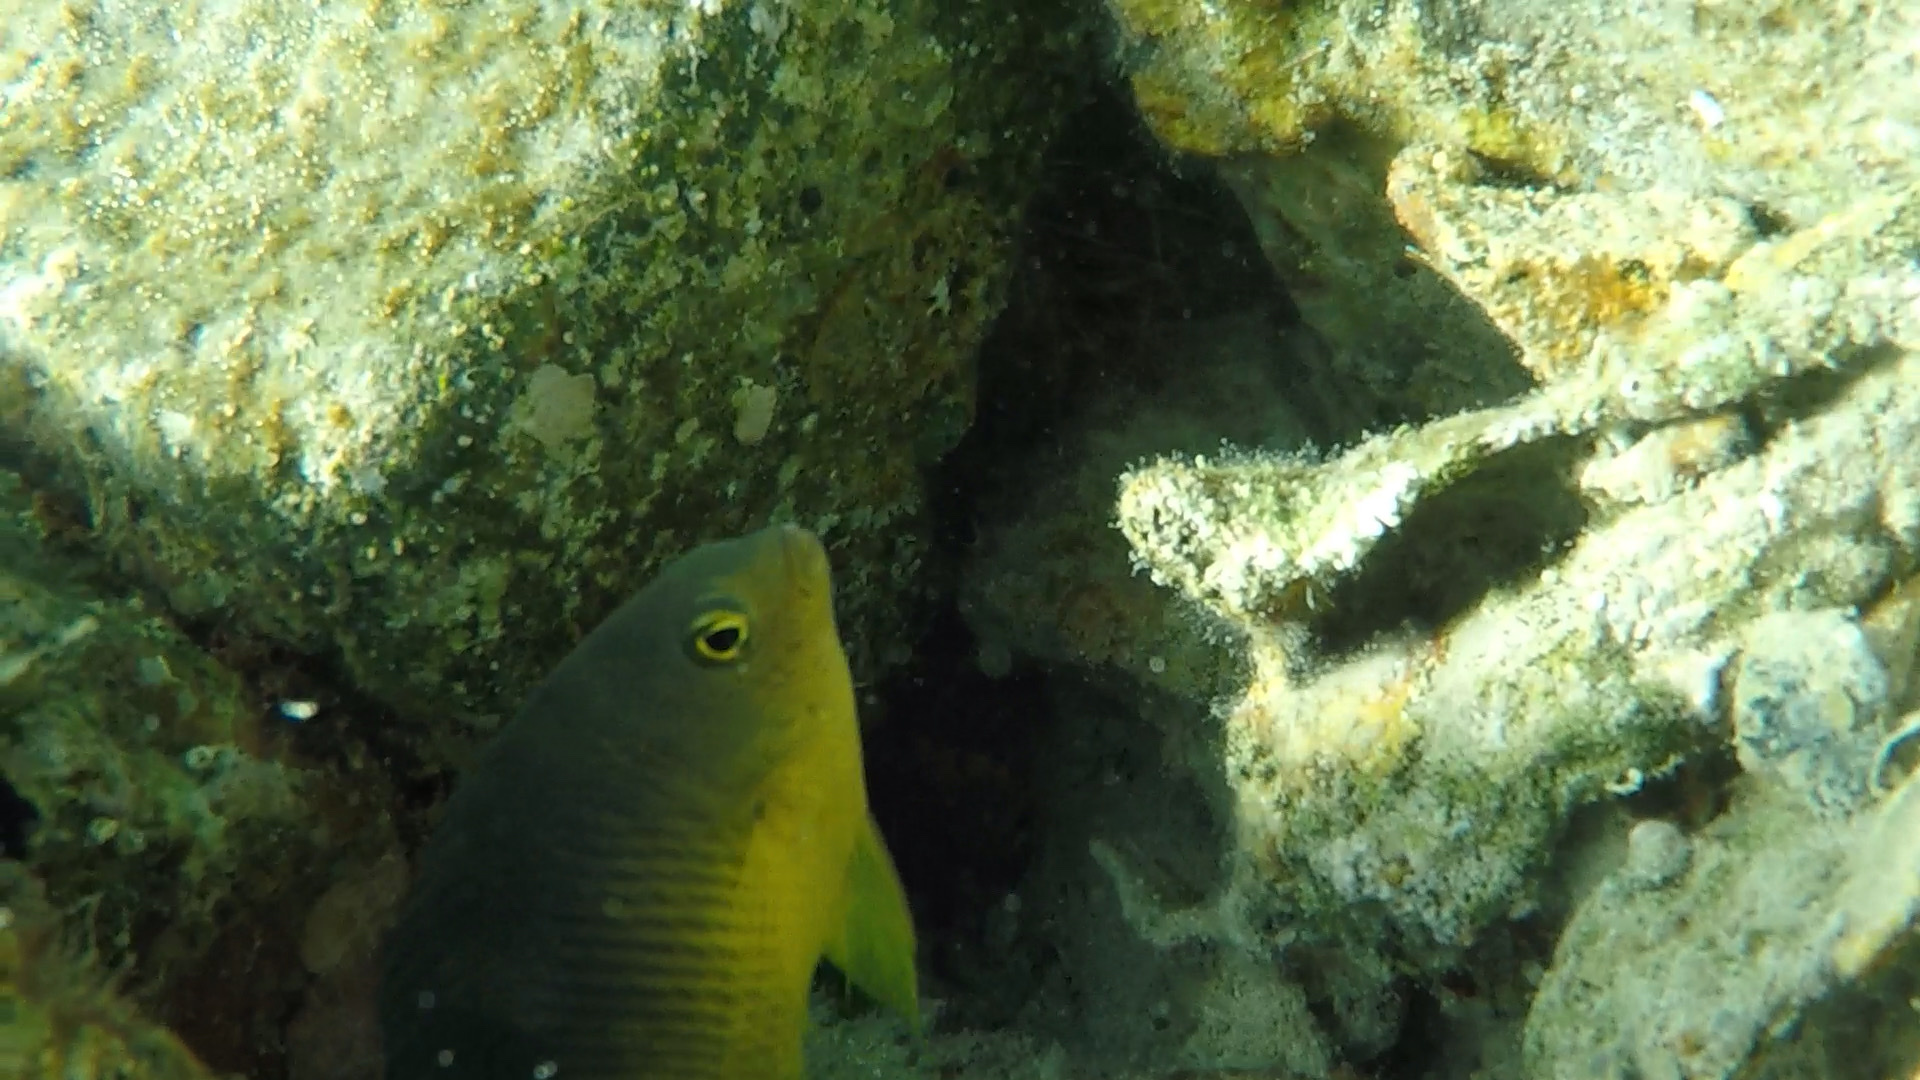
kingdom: Animalia
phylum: Chordata
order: Perciformes
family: Pomacentridae
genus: Stegastes
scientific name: Stegastes xanthurus
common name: Cocoa damselfish
